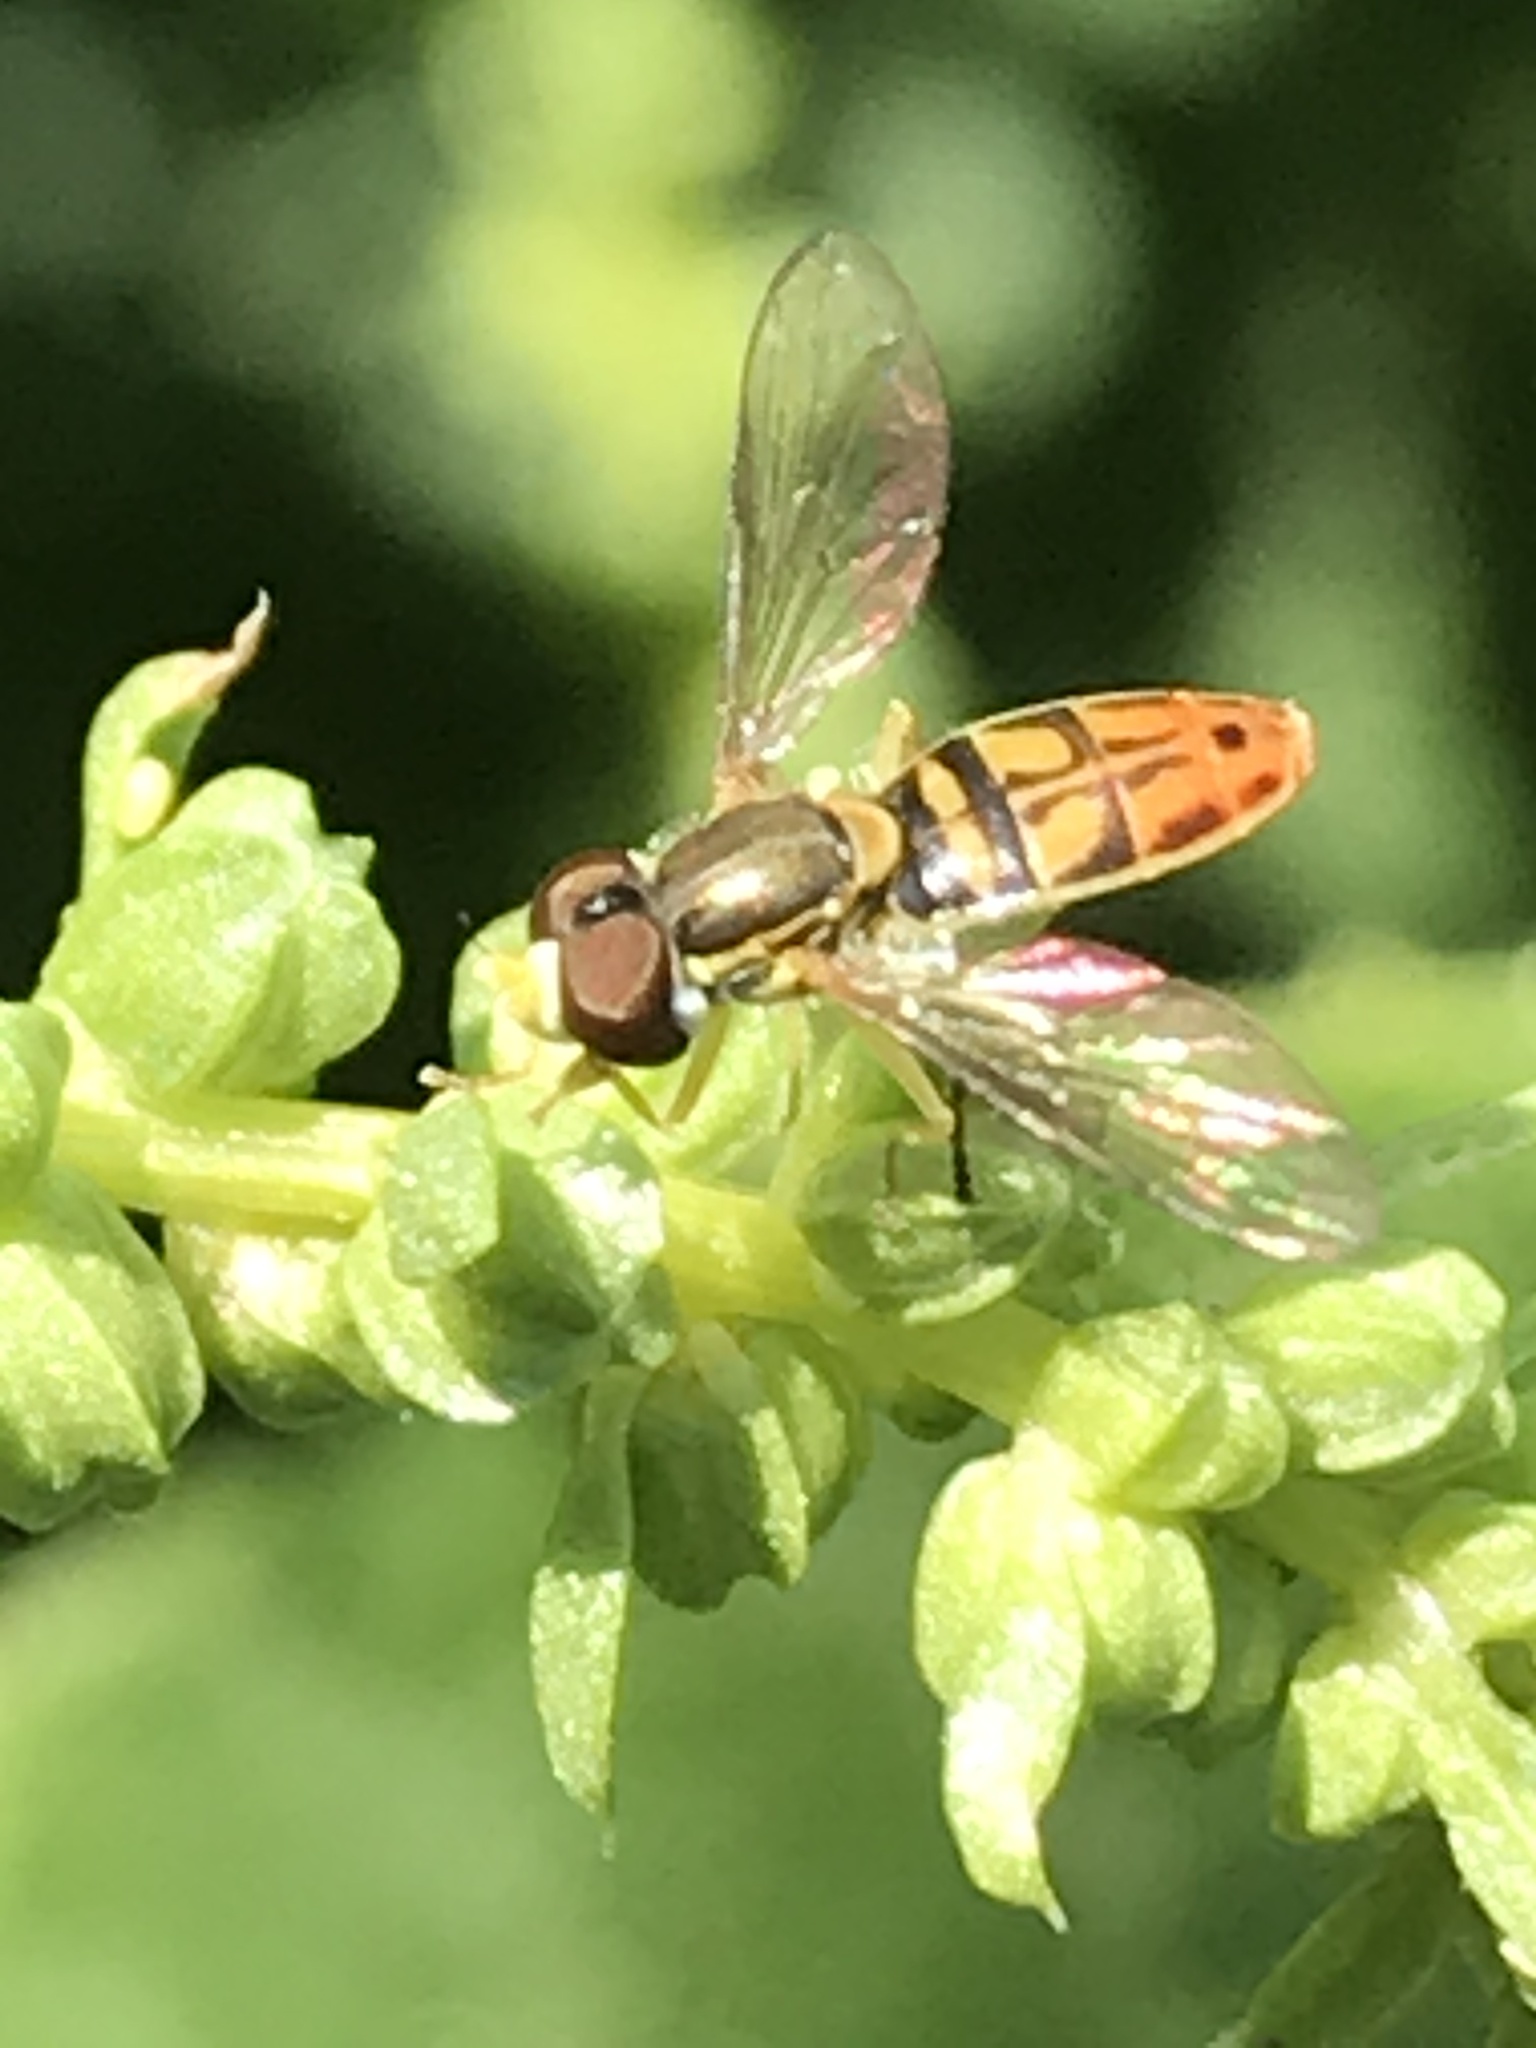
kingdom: Animalia
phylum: Arthropoda
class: Insecta
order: Diptera
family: Syrphidae
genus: Toxomerus
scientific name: Toxomerus marginatus
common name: Syrphid fly
